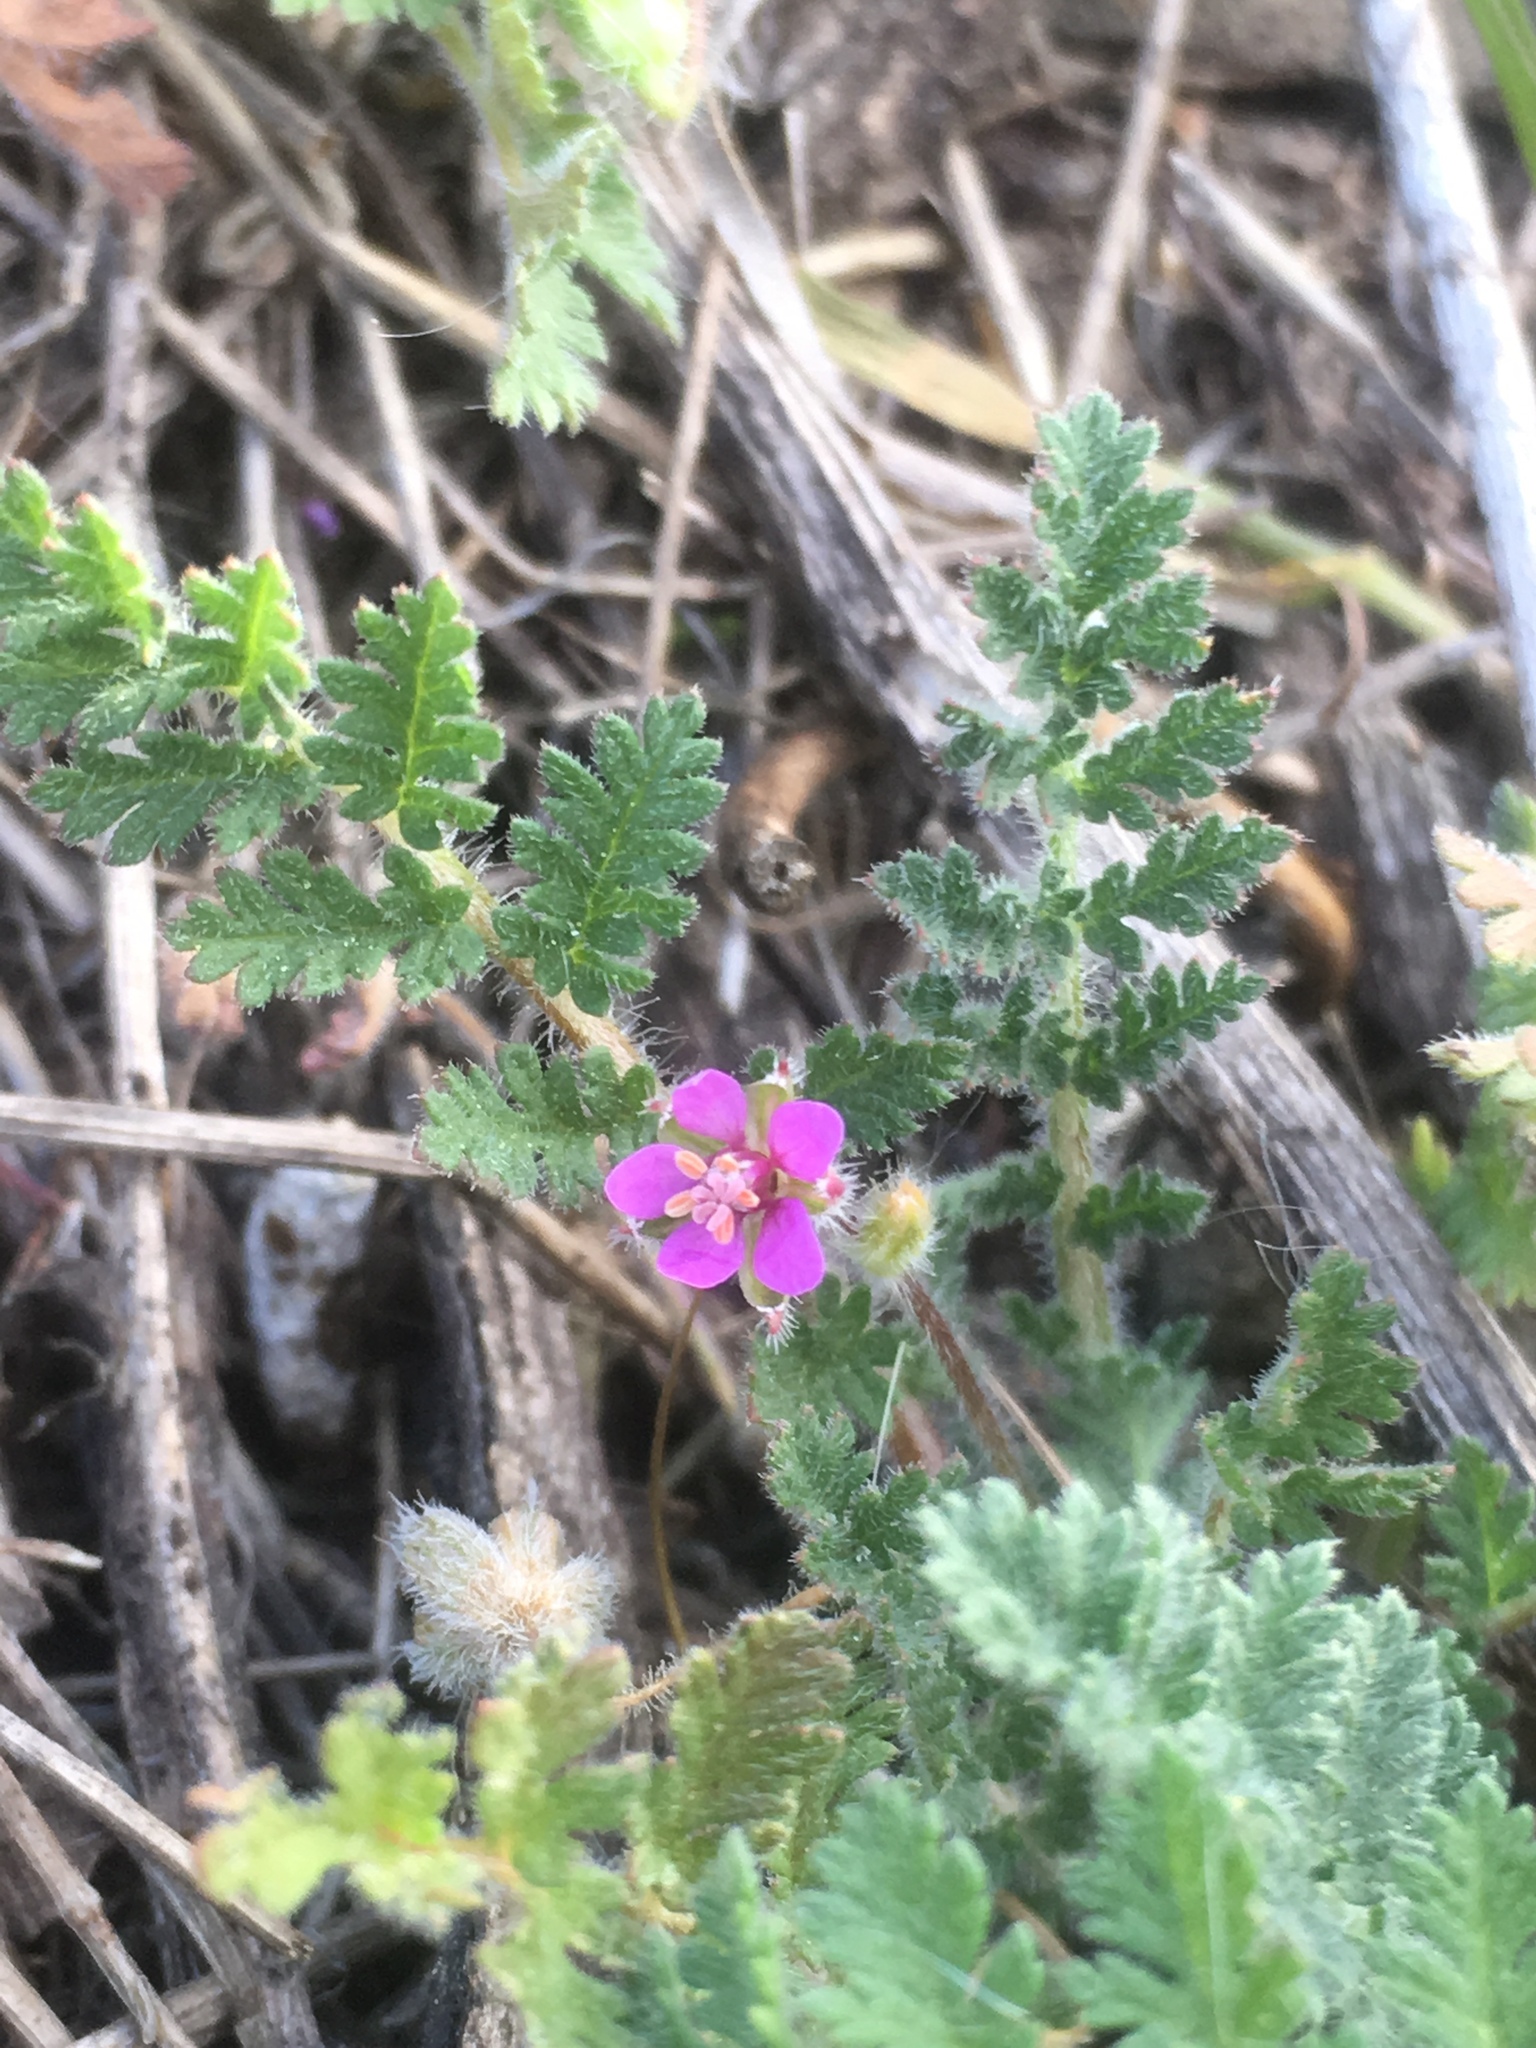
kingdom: Plantae
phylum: Tracheophyta
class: Magnoliopsida
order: Geraniales
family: Geraniaceae
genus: Erodium
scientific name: Erodium cicutarium
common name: Common stork's-bill
